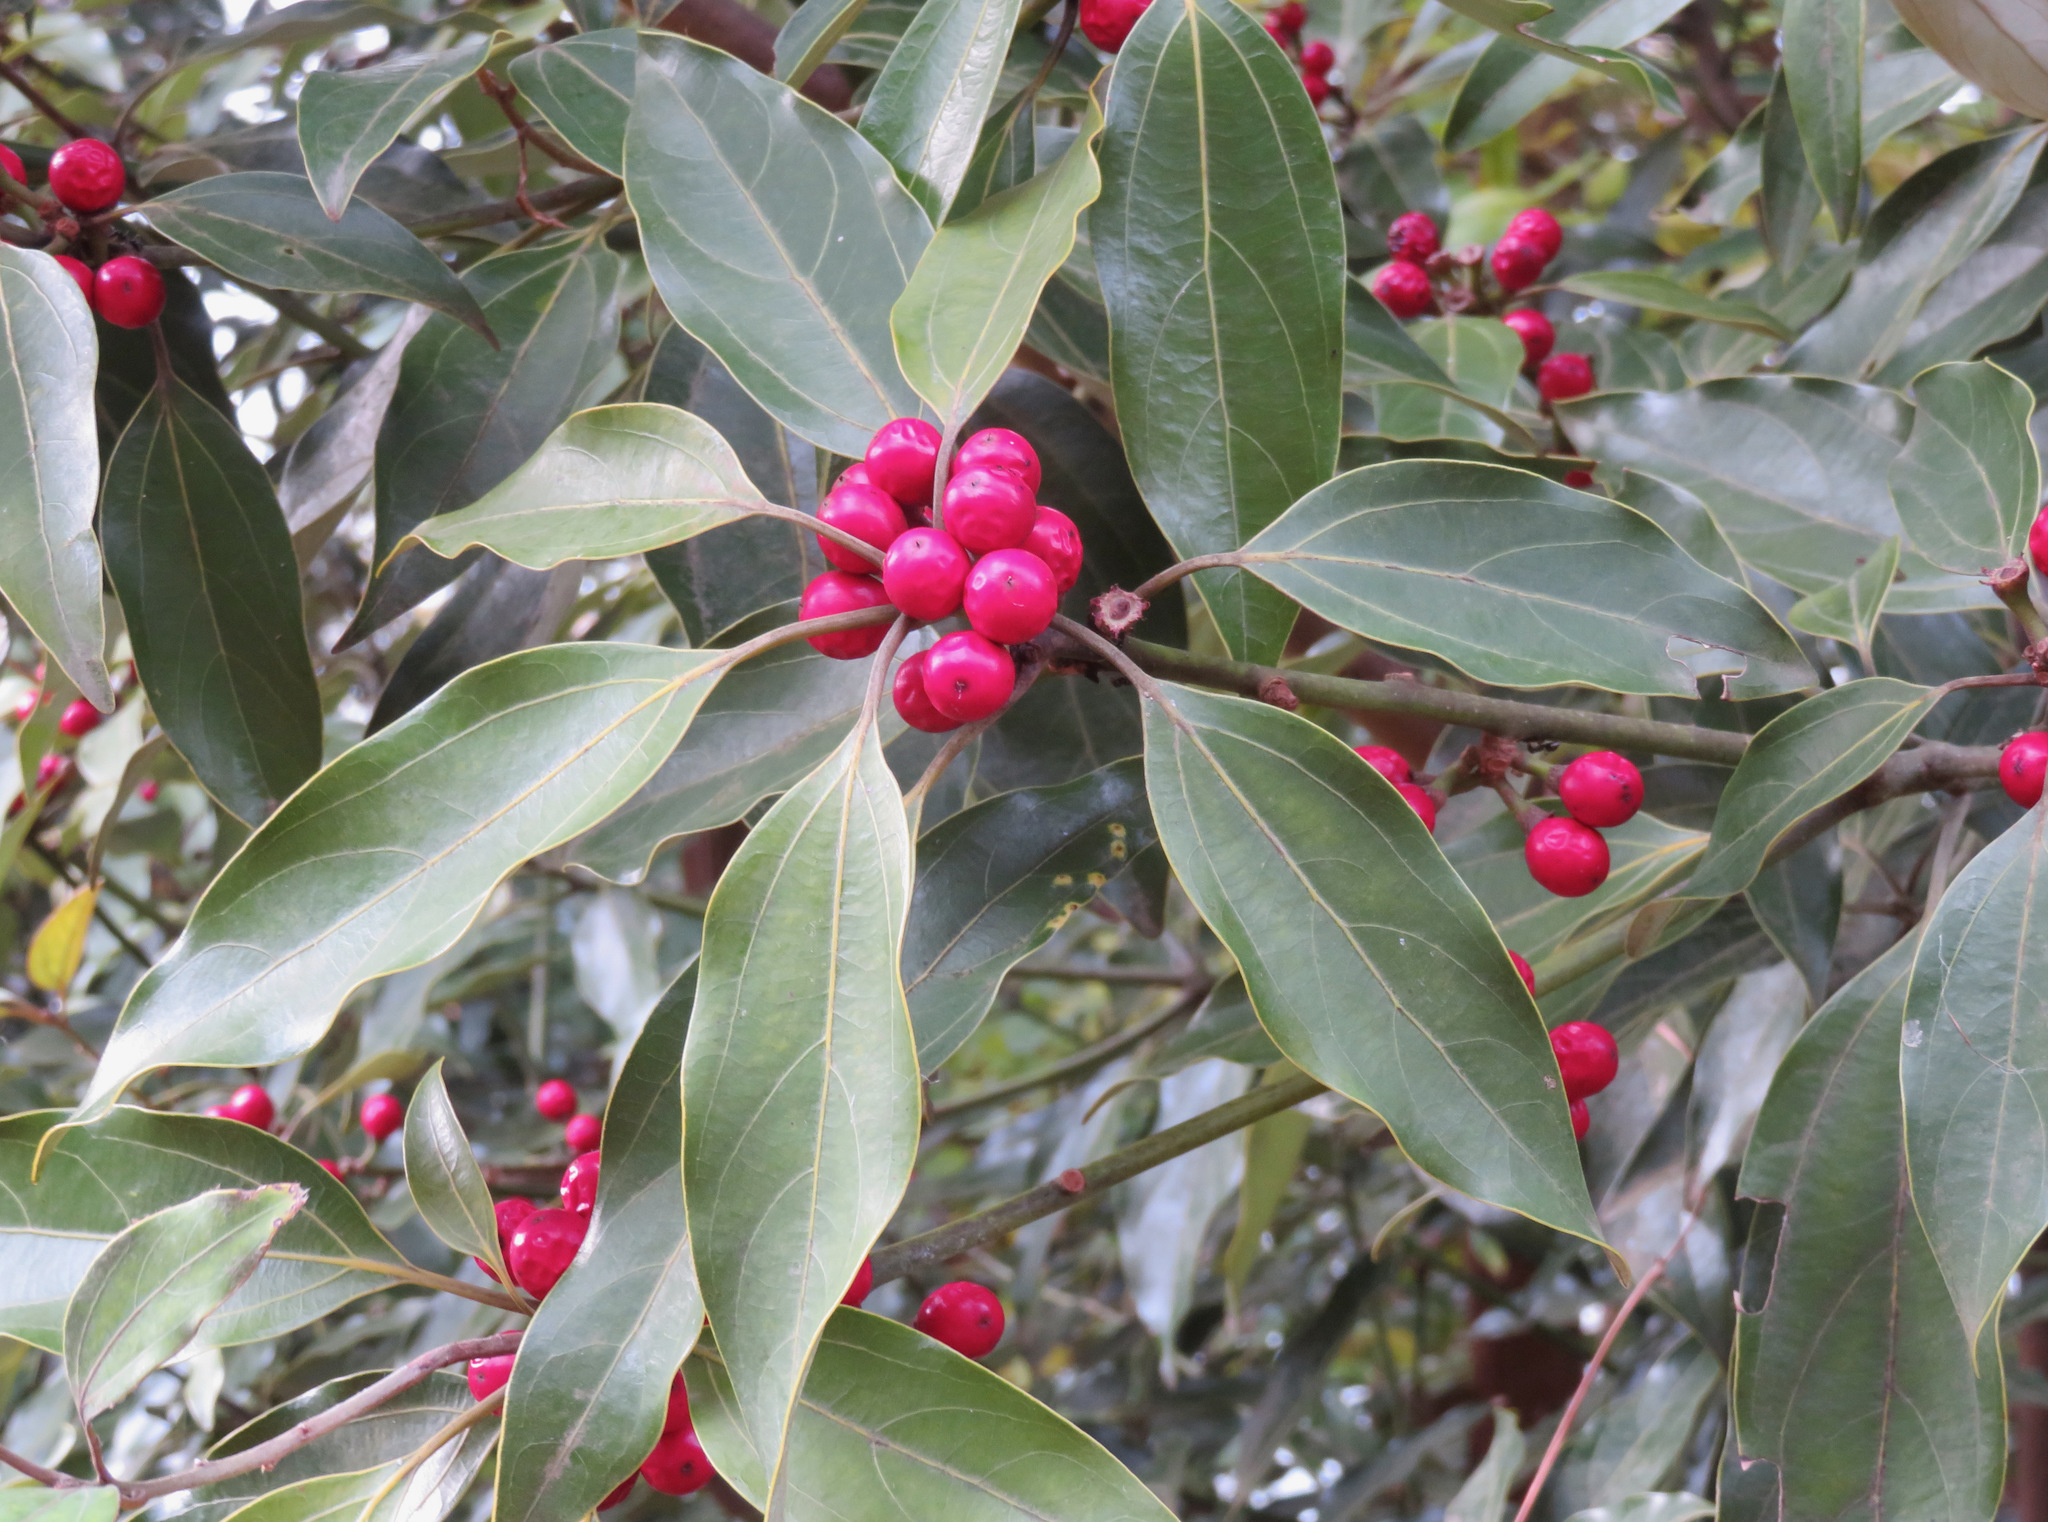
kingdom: Plantae
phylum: Tracheophyta
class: Magnoliopsida
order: Laurales
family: Lauraceae
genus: Neolitsea
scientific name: Neolitsea sericea
